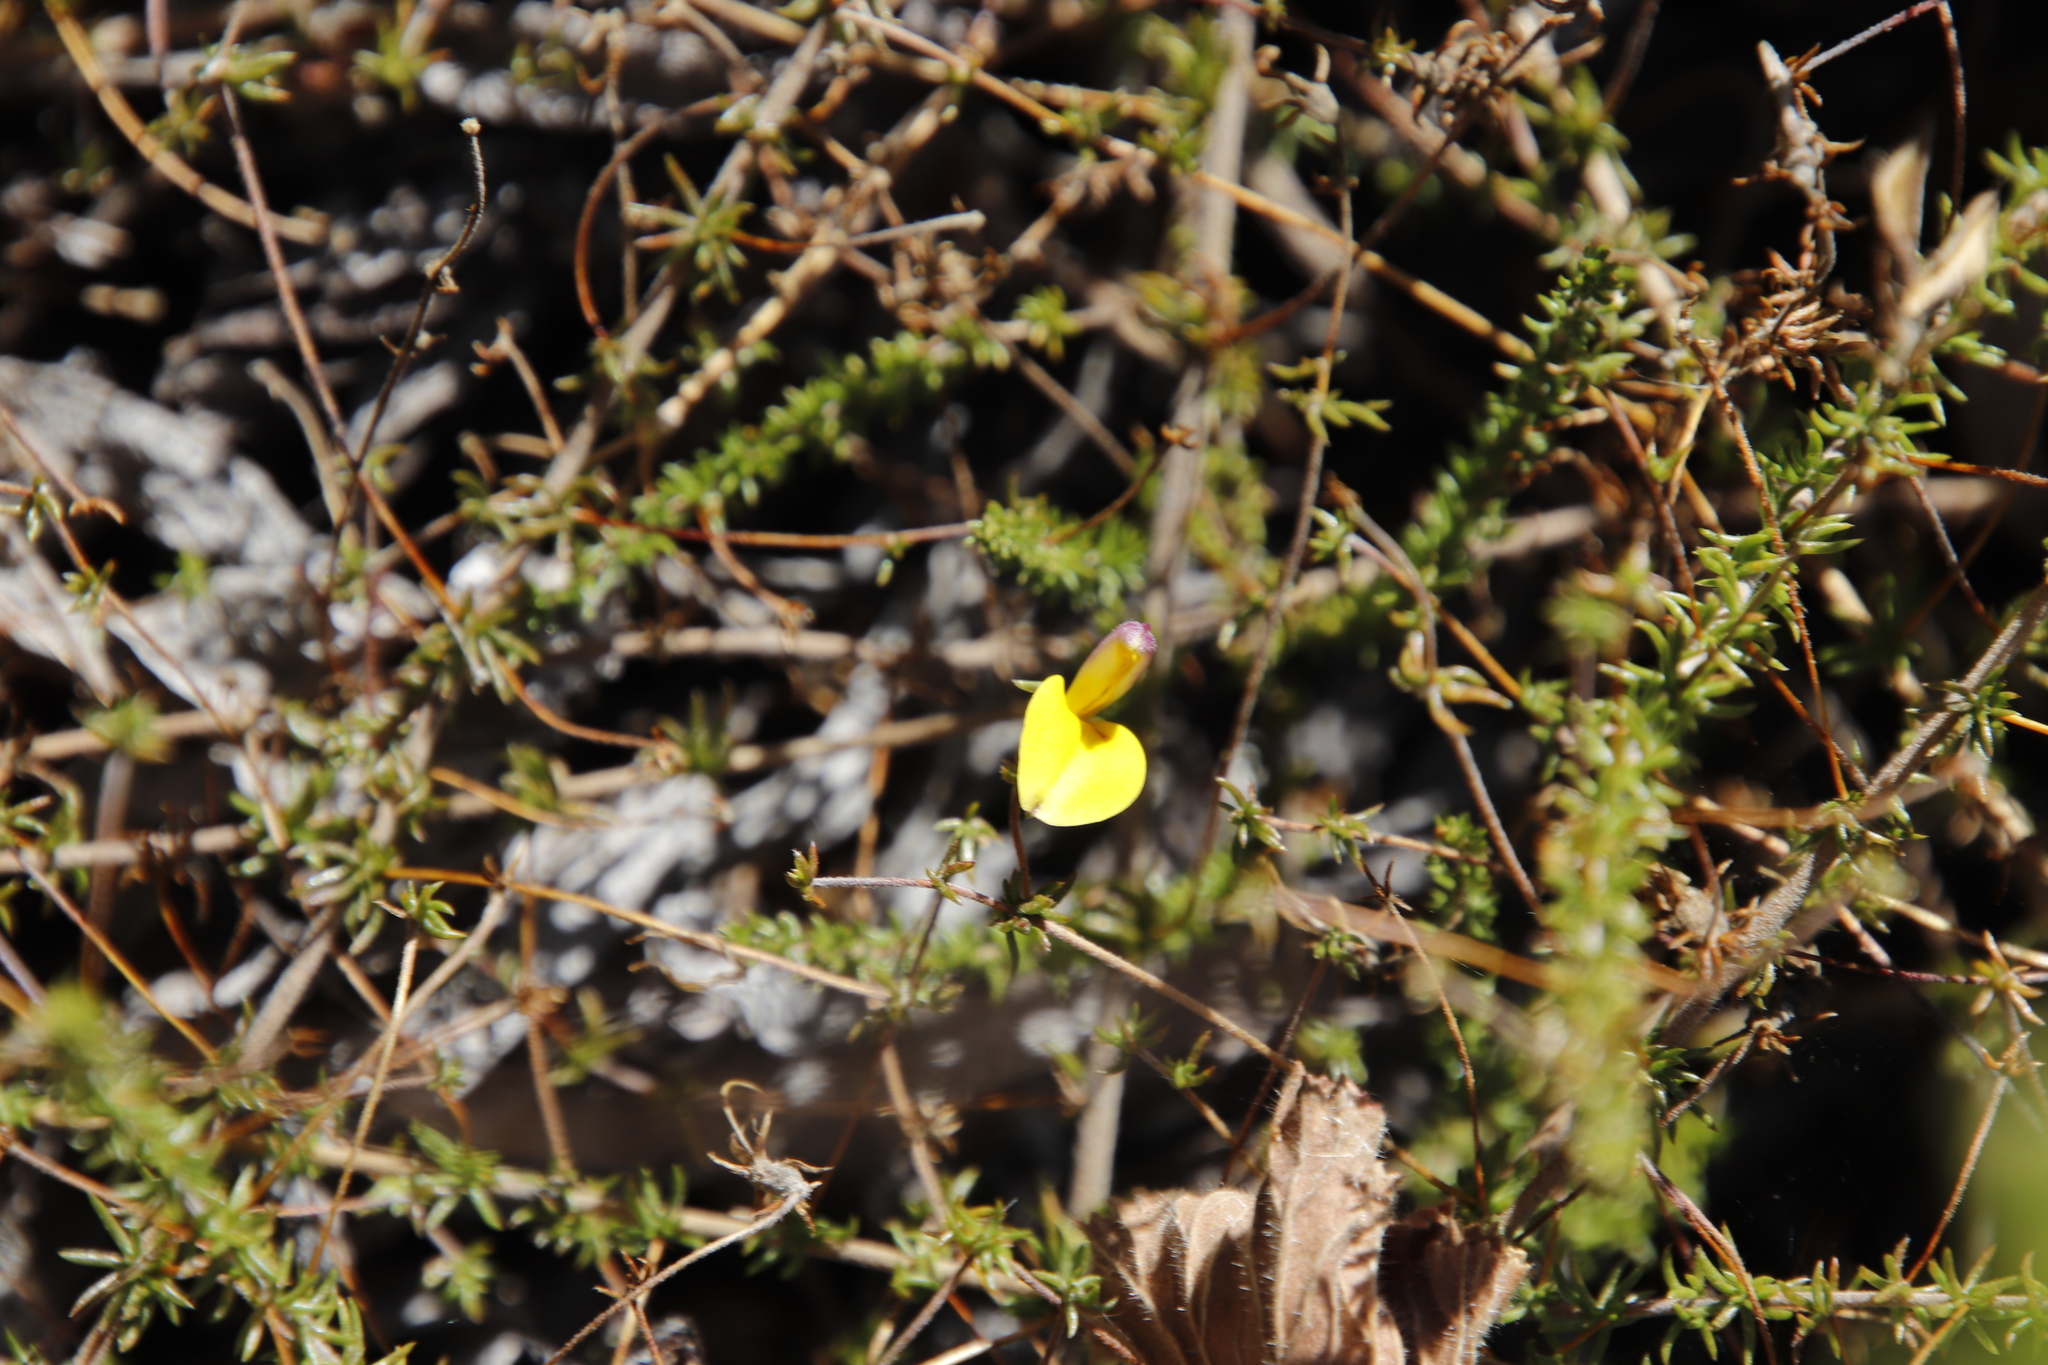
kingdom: Plantae
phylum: Tracheophyta
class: Magnoliopsida
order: Fabales
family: Fabaceae
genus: Aspalathus
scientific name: Aspalathus retroflexa
